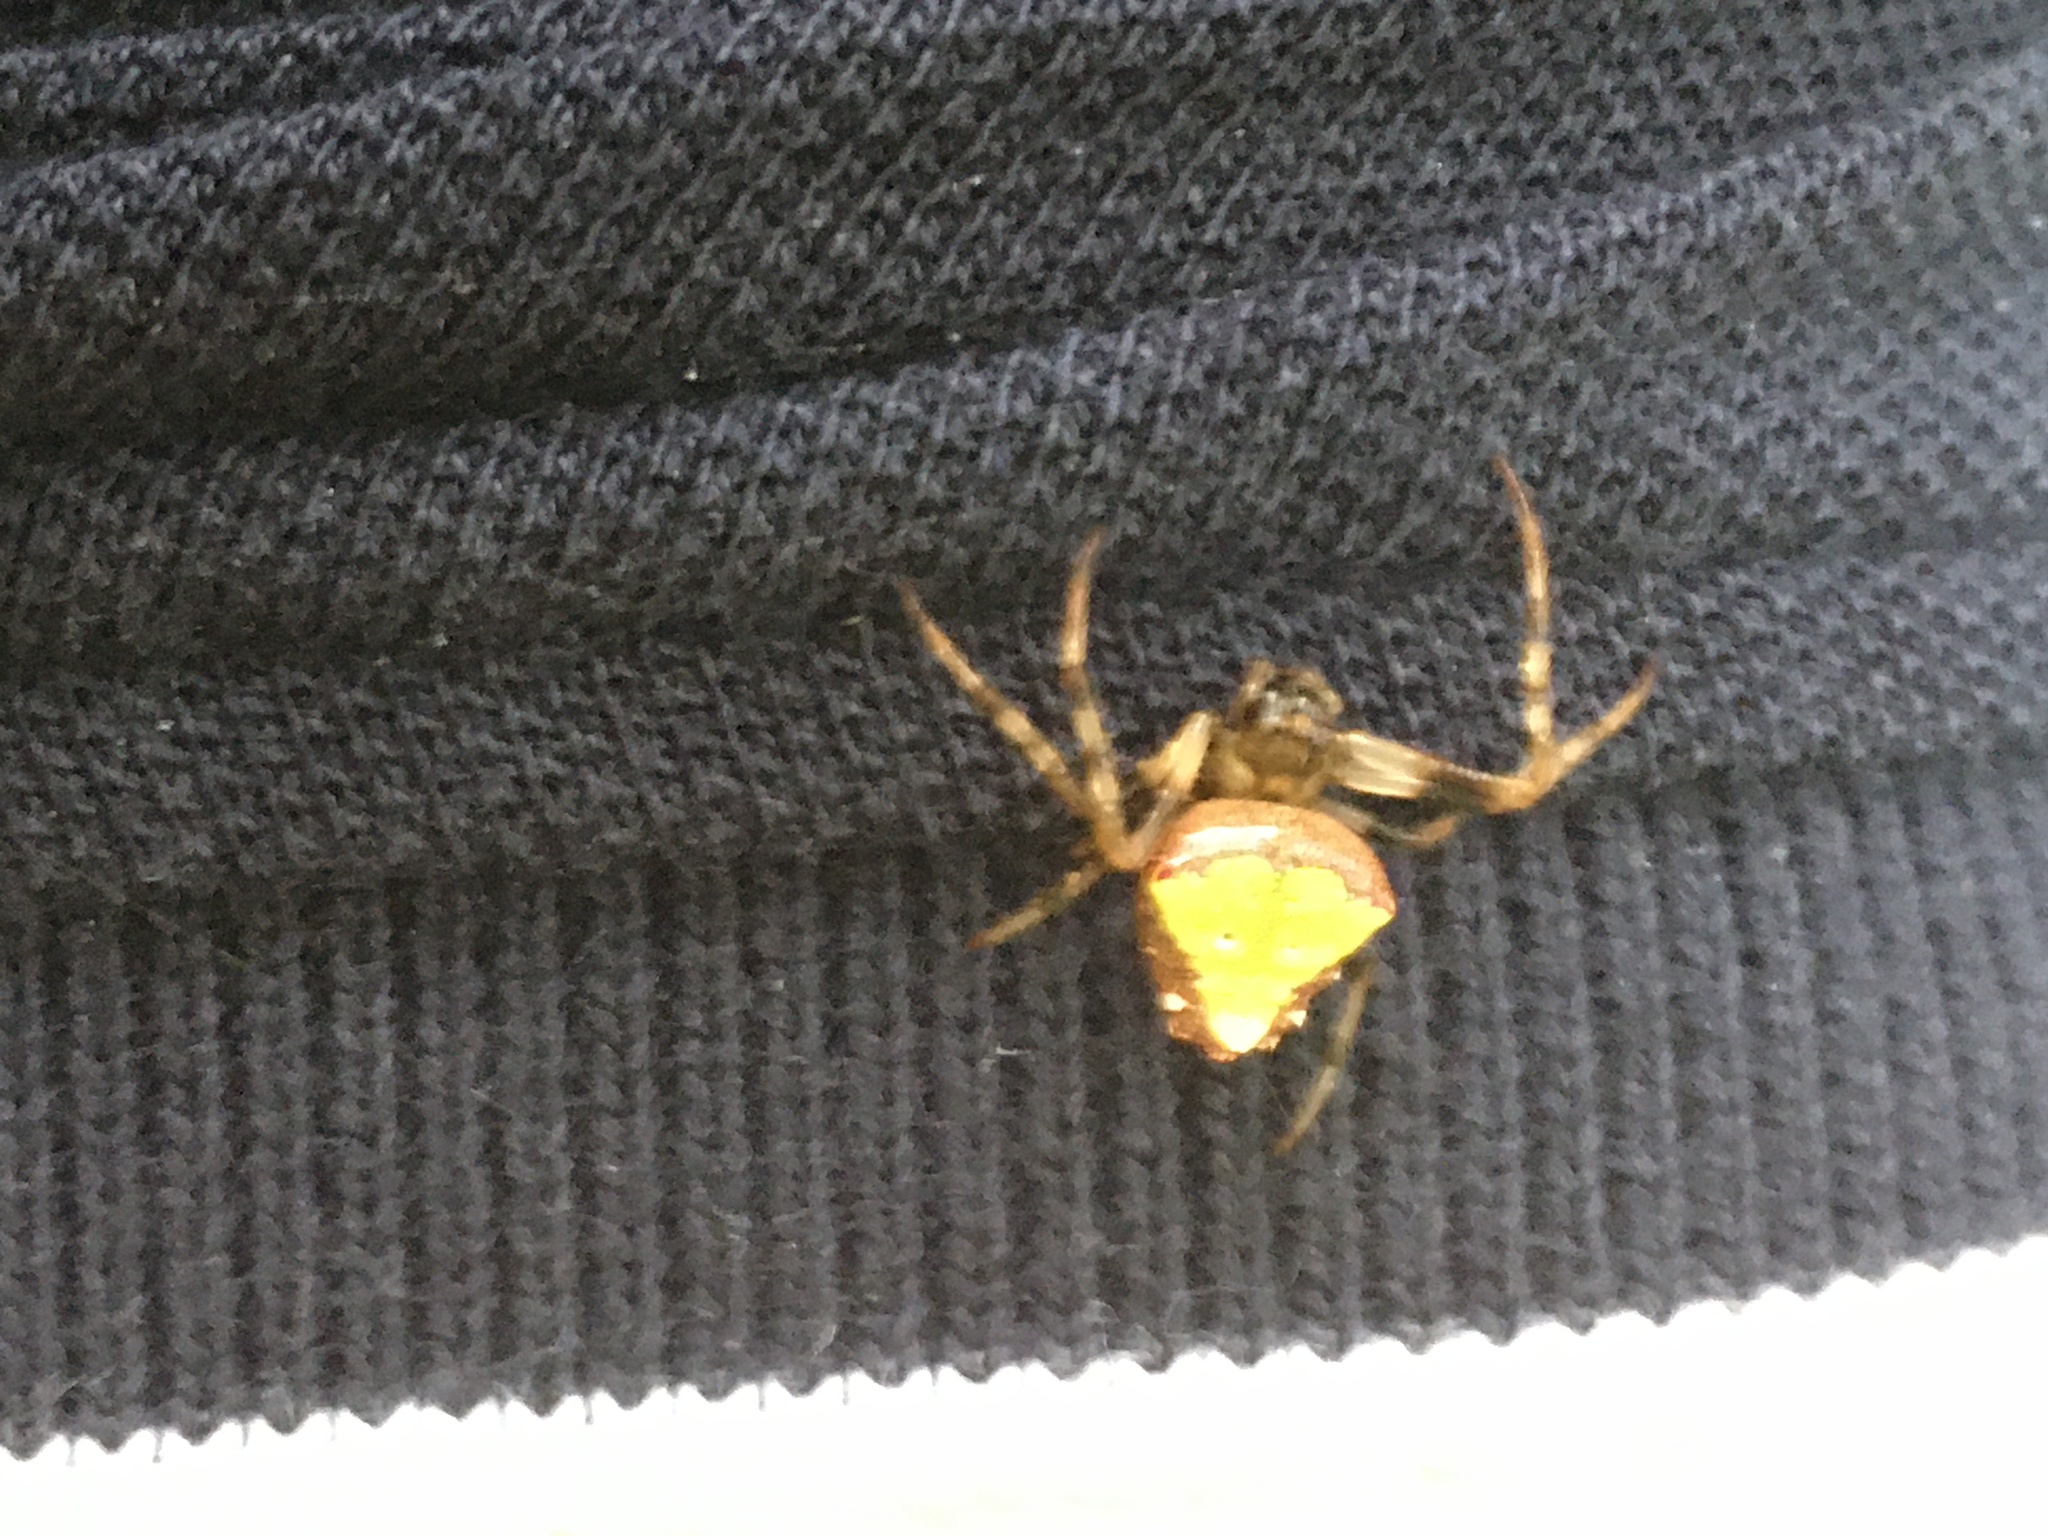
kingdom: Animalia
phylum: Arthropoda
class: Arachnida
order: Araneae
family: Araneidae
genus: Verrucosa
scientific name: Verrucosa arenata
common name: Orb weavers
